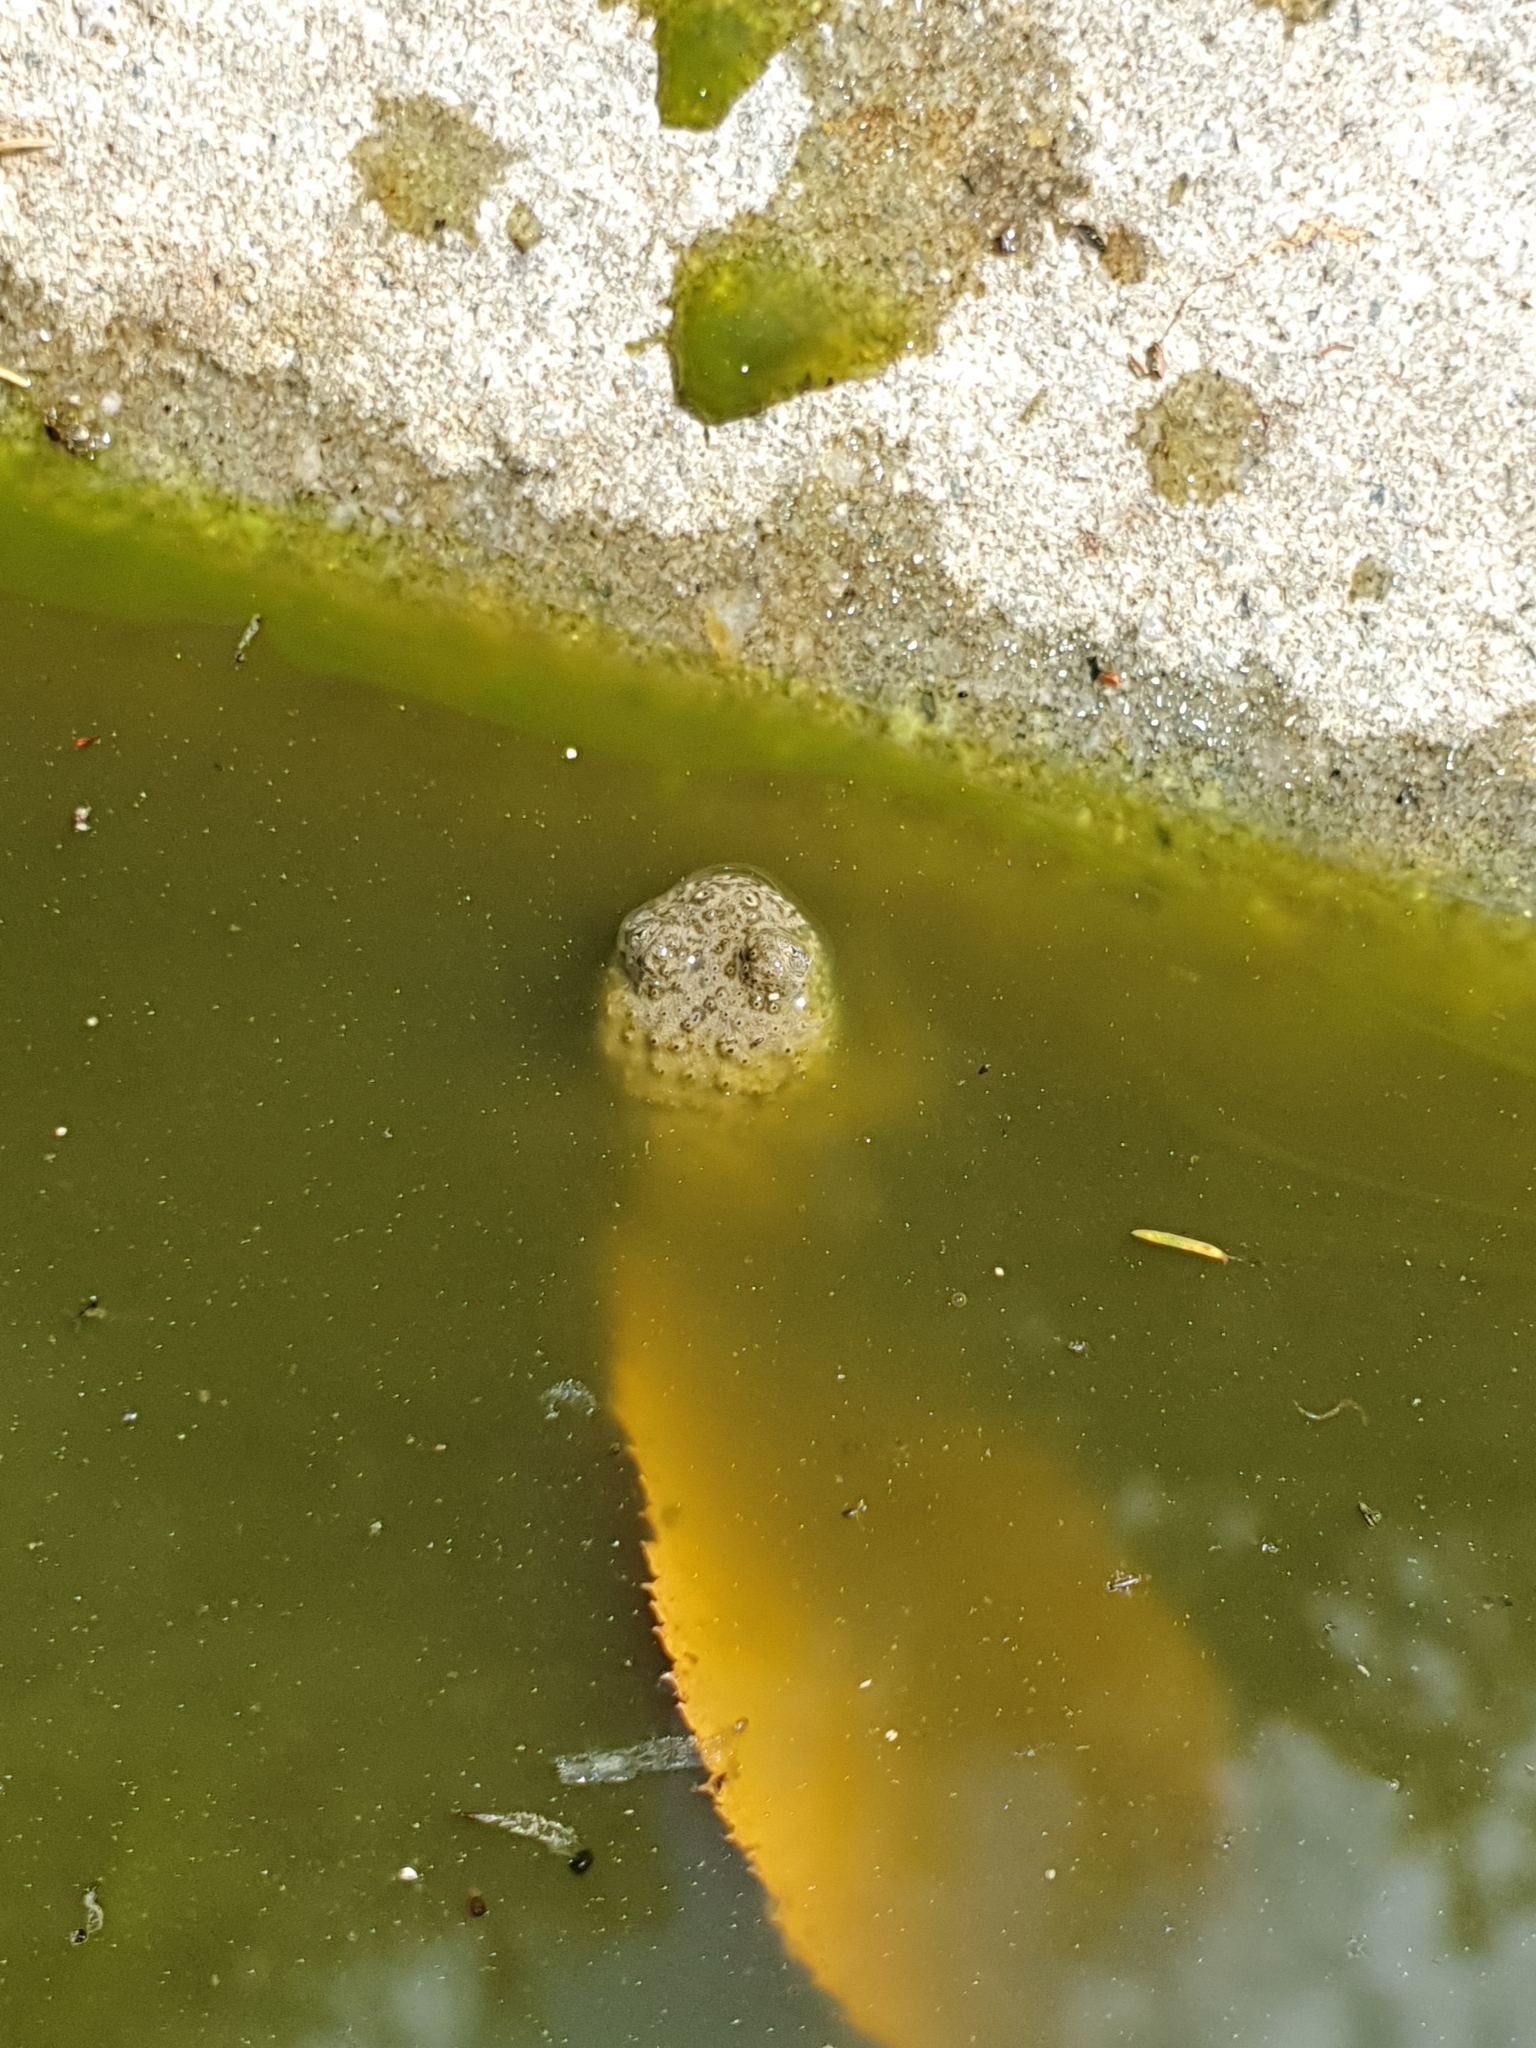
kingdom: Animalia
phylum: Chordata
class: Amphibia
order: Anura
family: Bombinatoridae
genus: Bombina
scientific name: Bombina variegata
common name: Yellow-bellied toad
